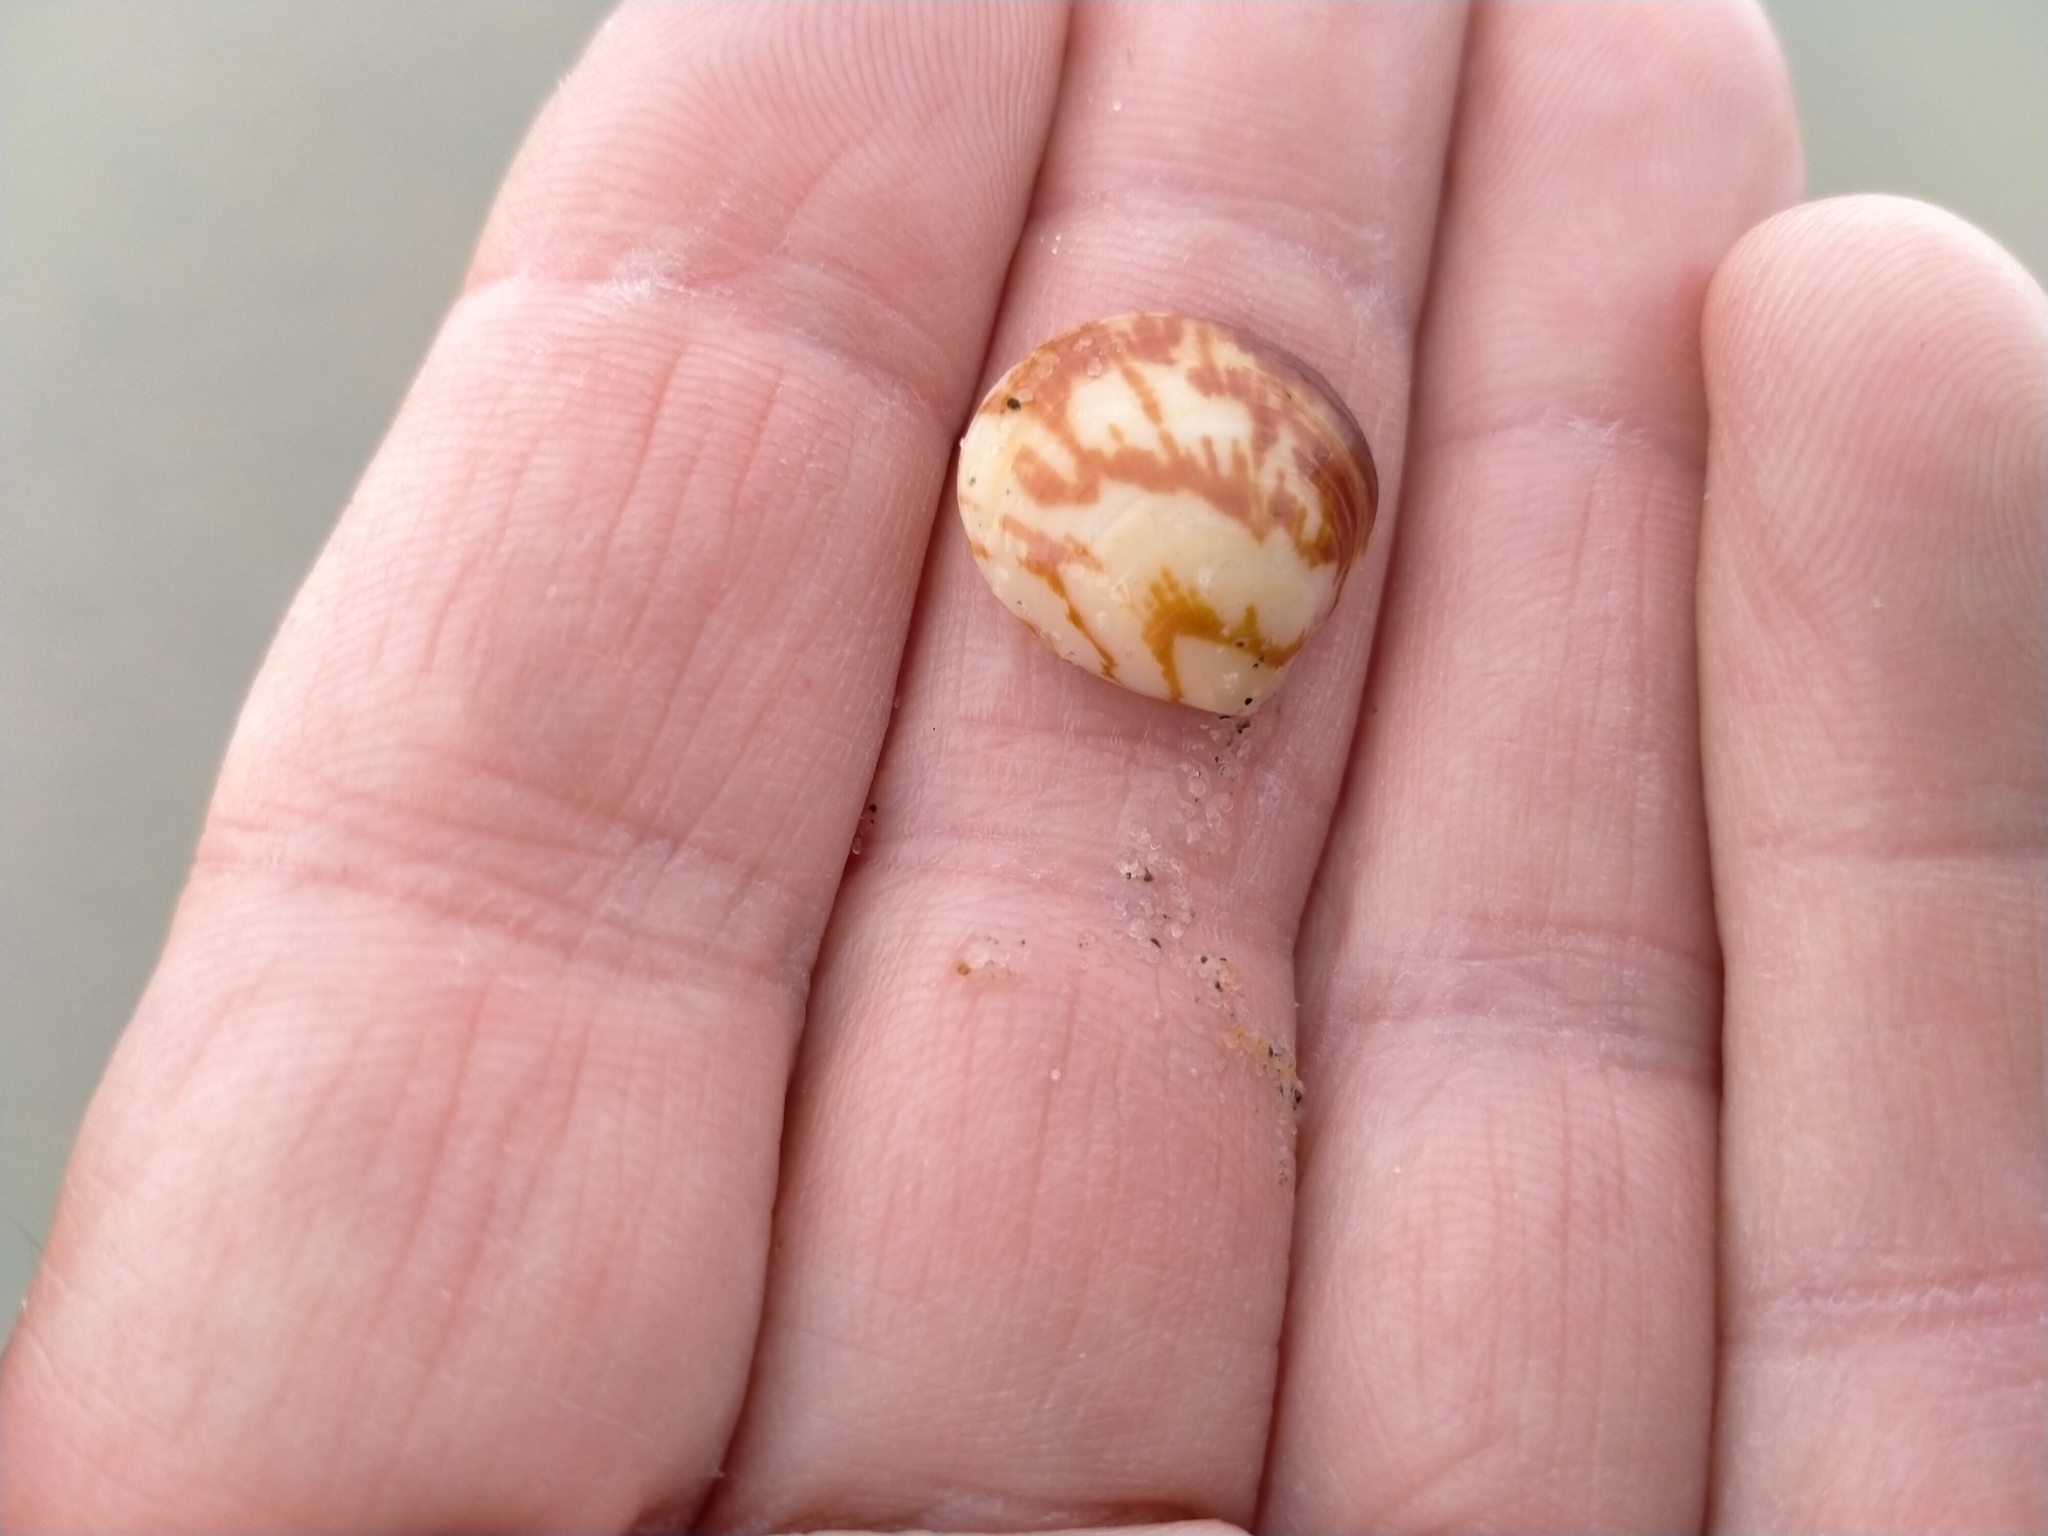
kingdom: Animalia
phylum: Mollusca
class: Bivalvia
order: Arcida
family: Glycymerididae
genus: Glycymeris
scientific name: Glycymeris modesta
